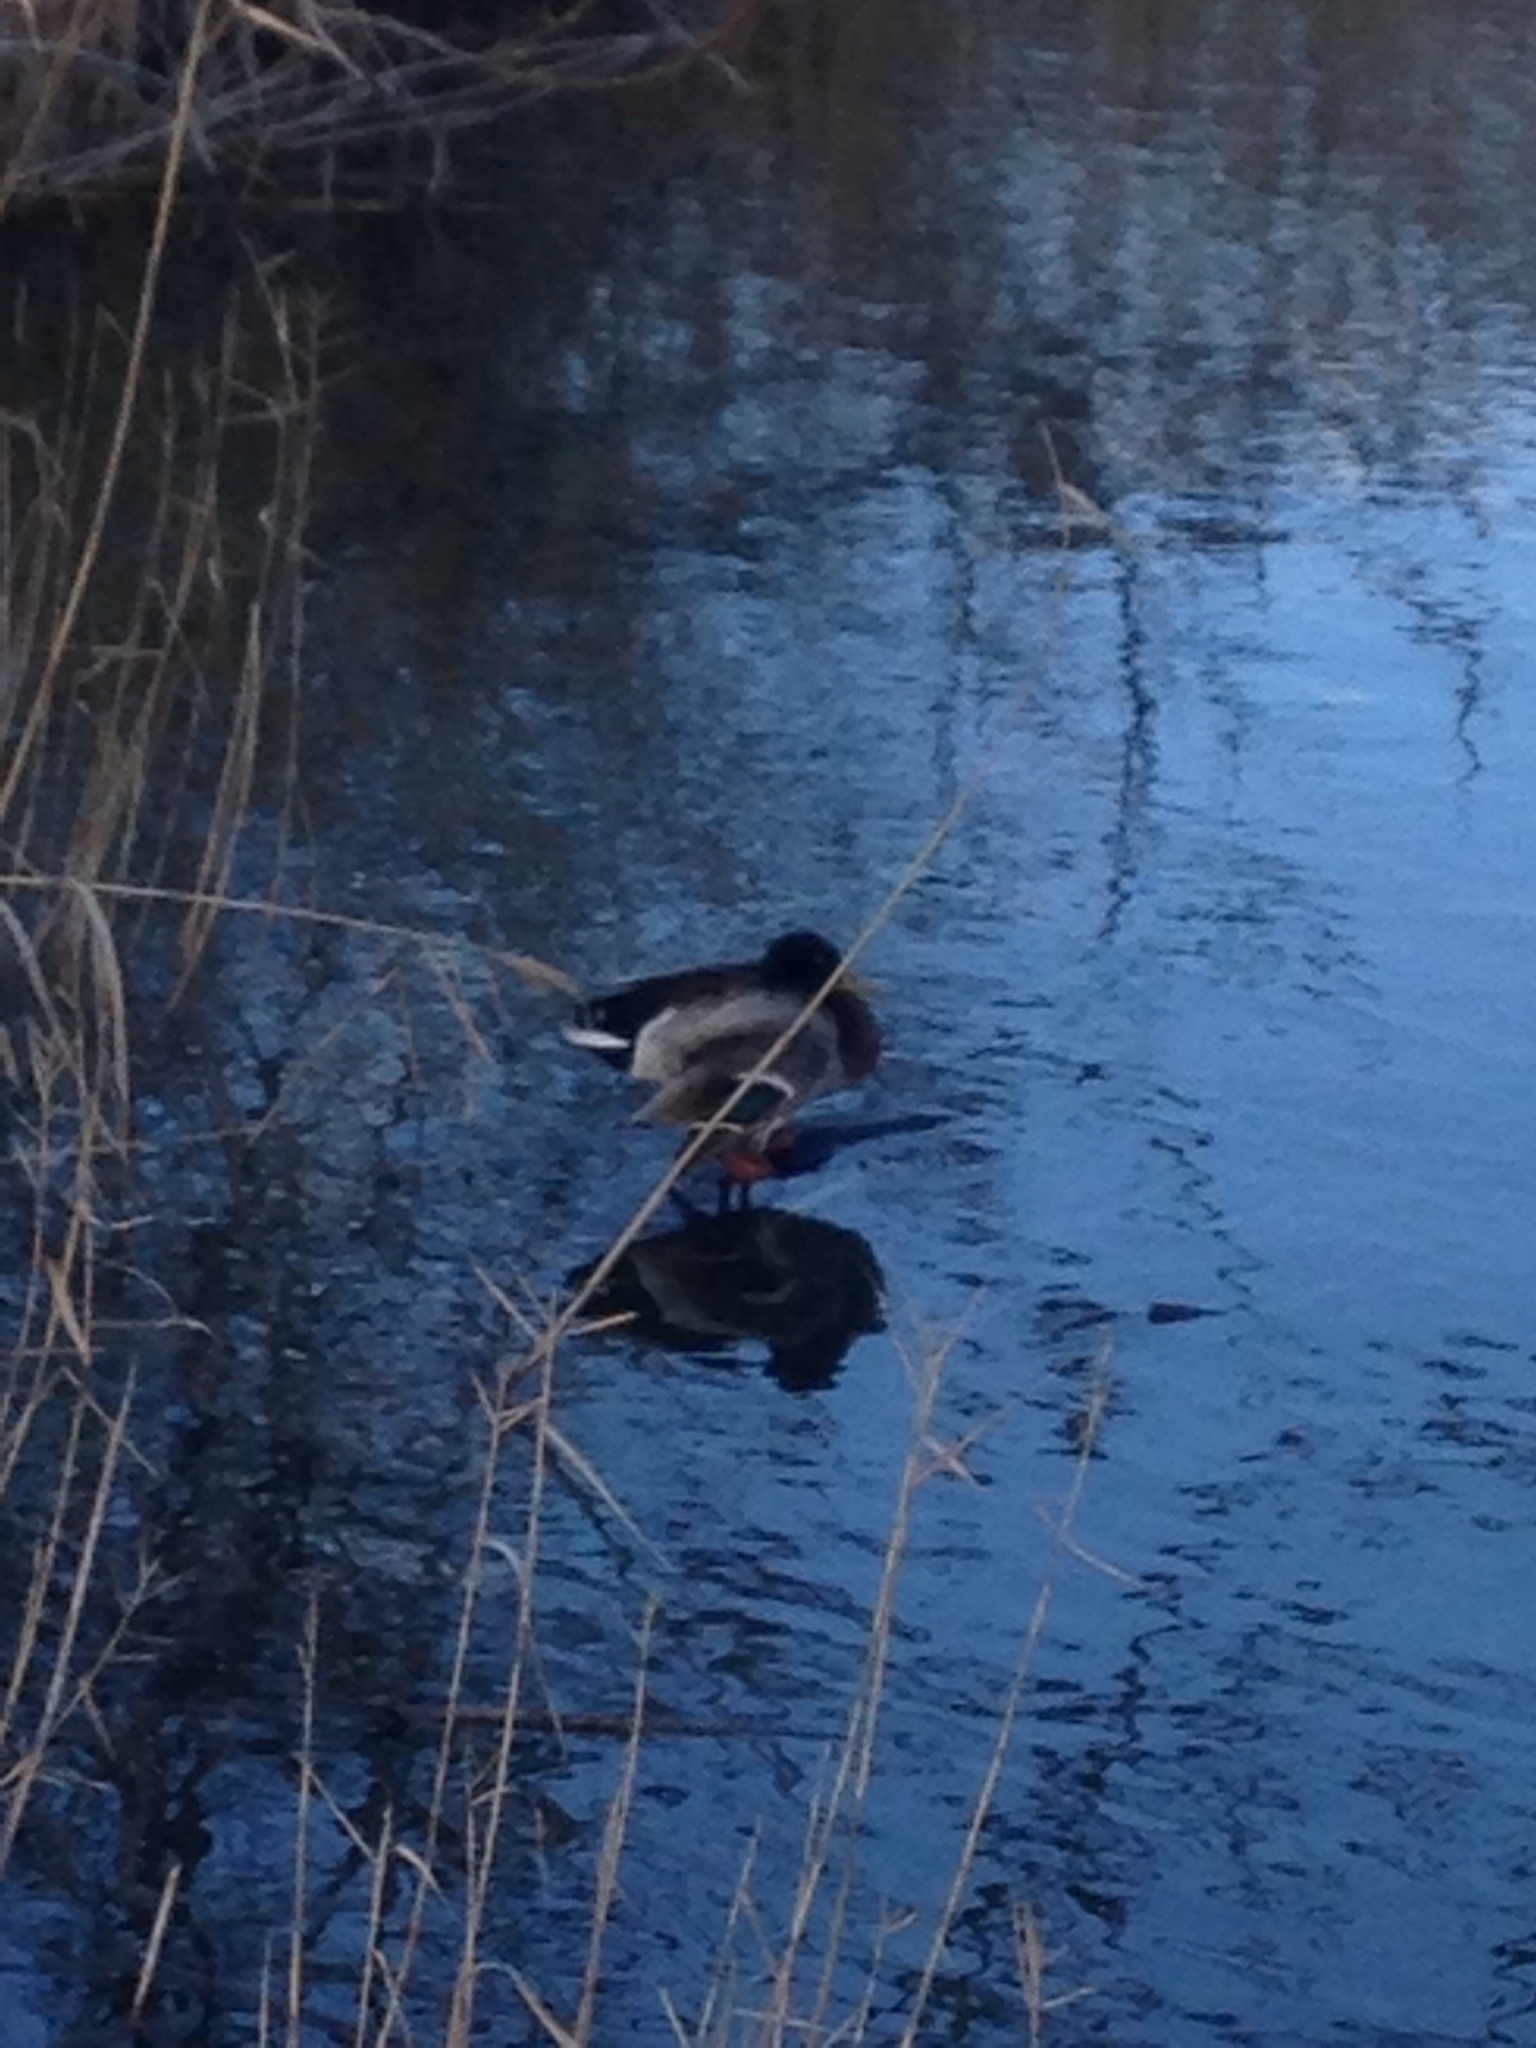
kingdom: Animalia
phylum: Chordata
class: Aves
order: Anseriformes
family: Anatidae
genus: Anas
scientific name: Anas platyrhynchos
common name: Mallard
